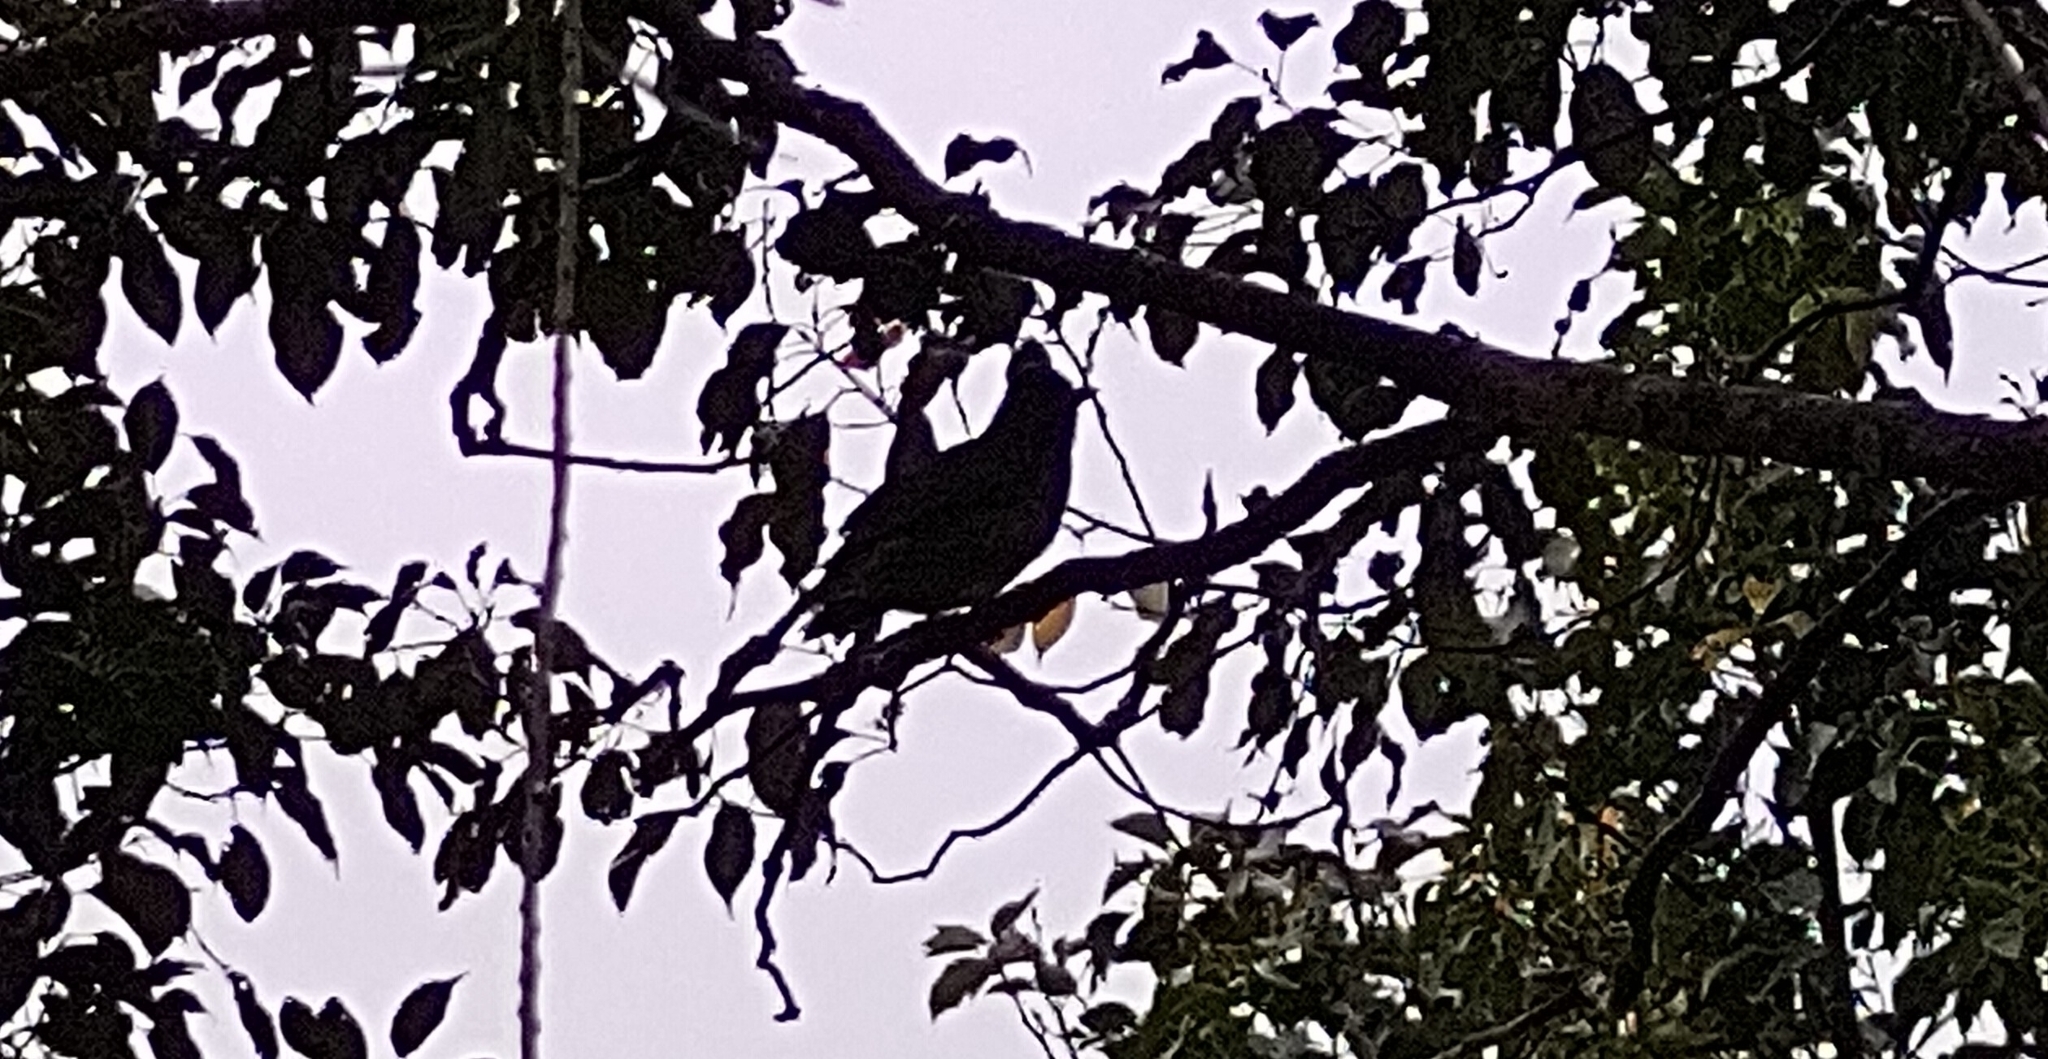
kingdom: Animalia
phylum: Chordata
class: Aves
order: Passeriformes
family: Pycnonotidae
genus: Hypsipetes
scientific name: Hypsipetes olivaceus
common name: Mauritius bulbul
